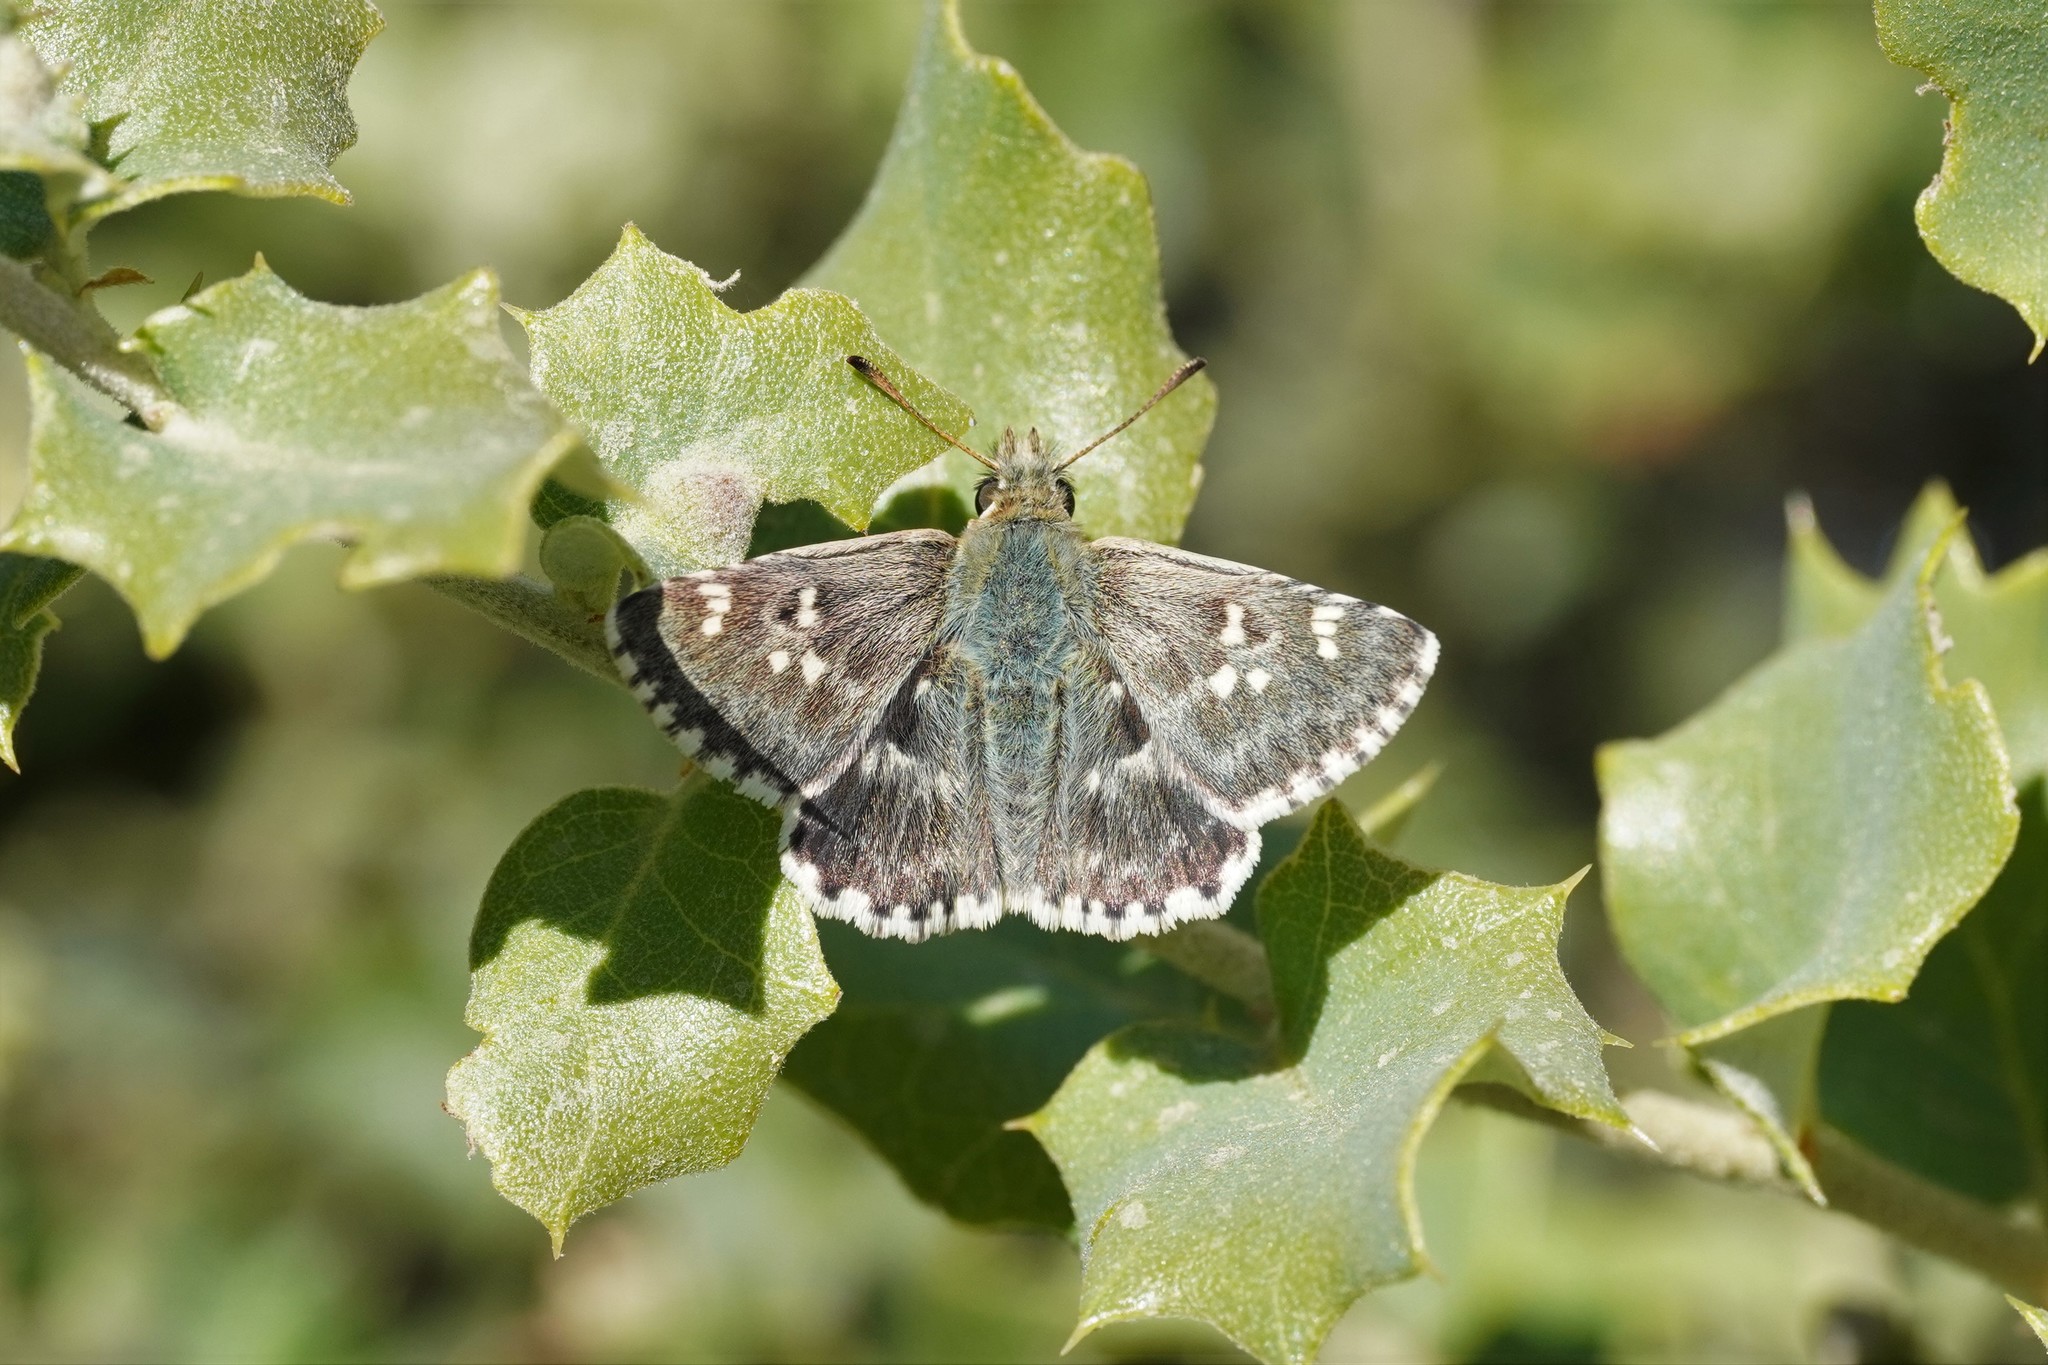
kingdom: Animalia
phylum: Arthropoda
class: Insecta
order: Lepidoptera
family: Hesperiidae
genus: Syrichtus
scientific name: Syrichtus Muschampia proto
